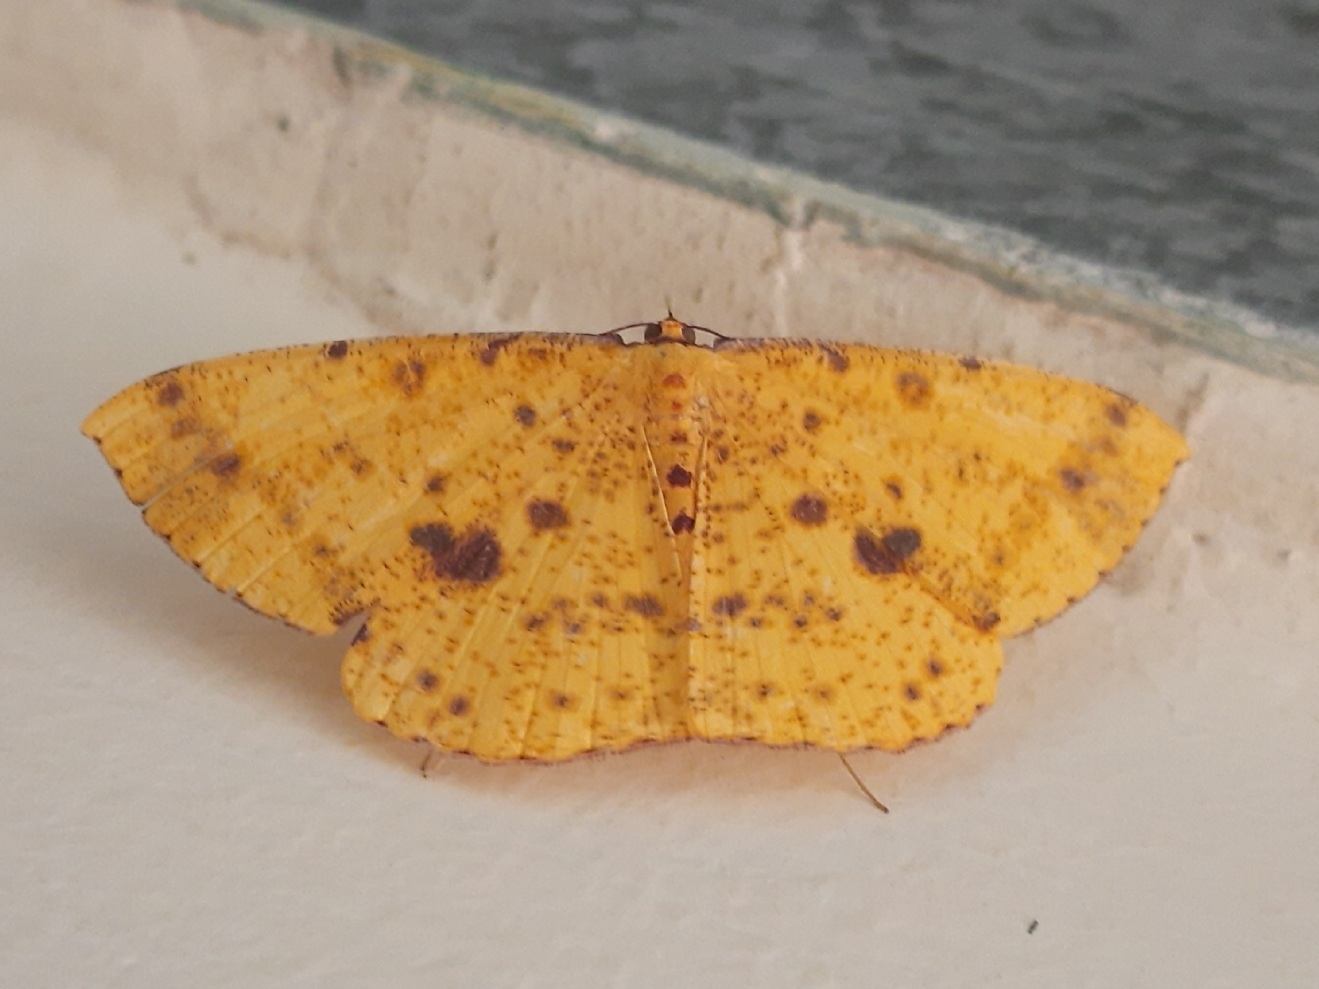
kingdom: Animalia
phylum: Arthropoda
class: Insecta
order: Lepidoptera
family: Geometridae
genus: Eumelea
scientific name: Eumelea ludovicata
